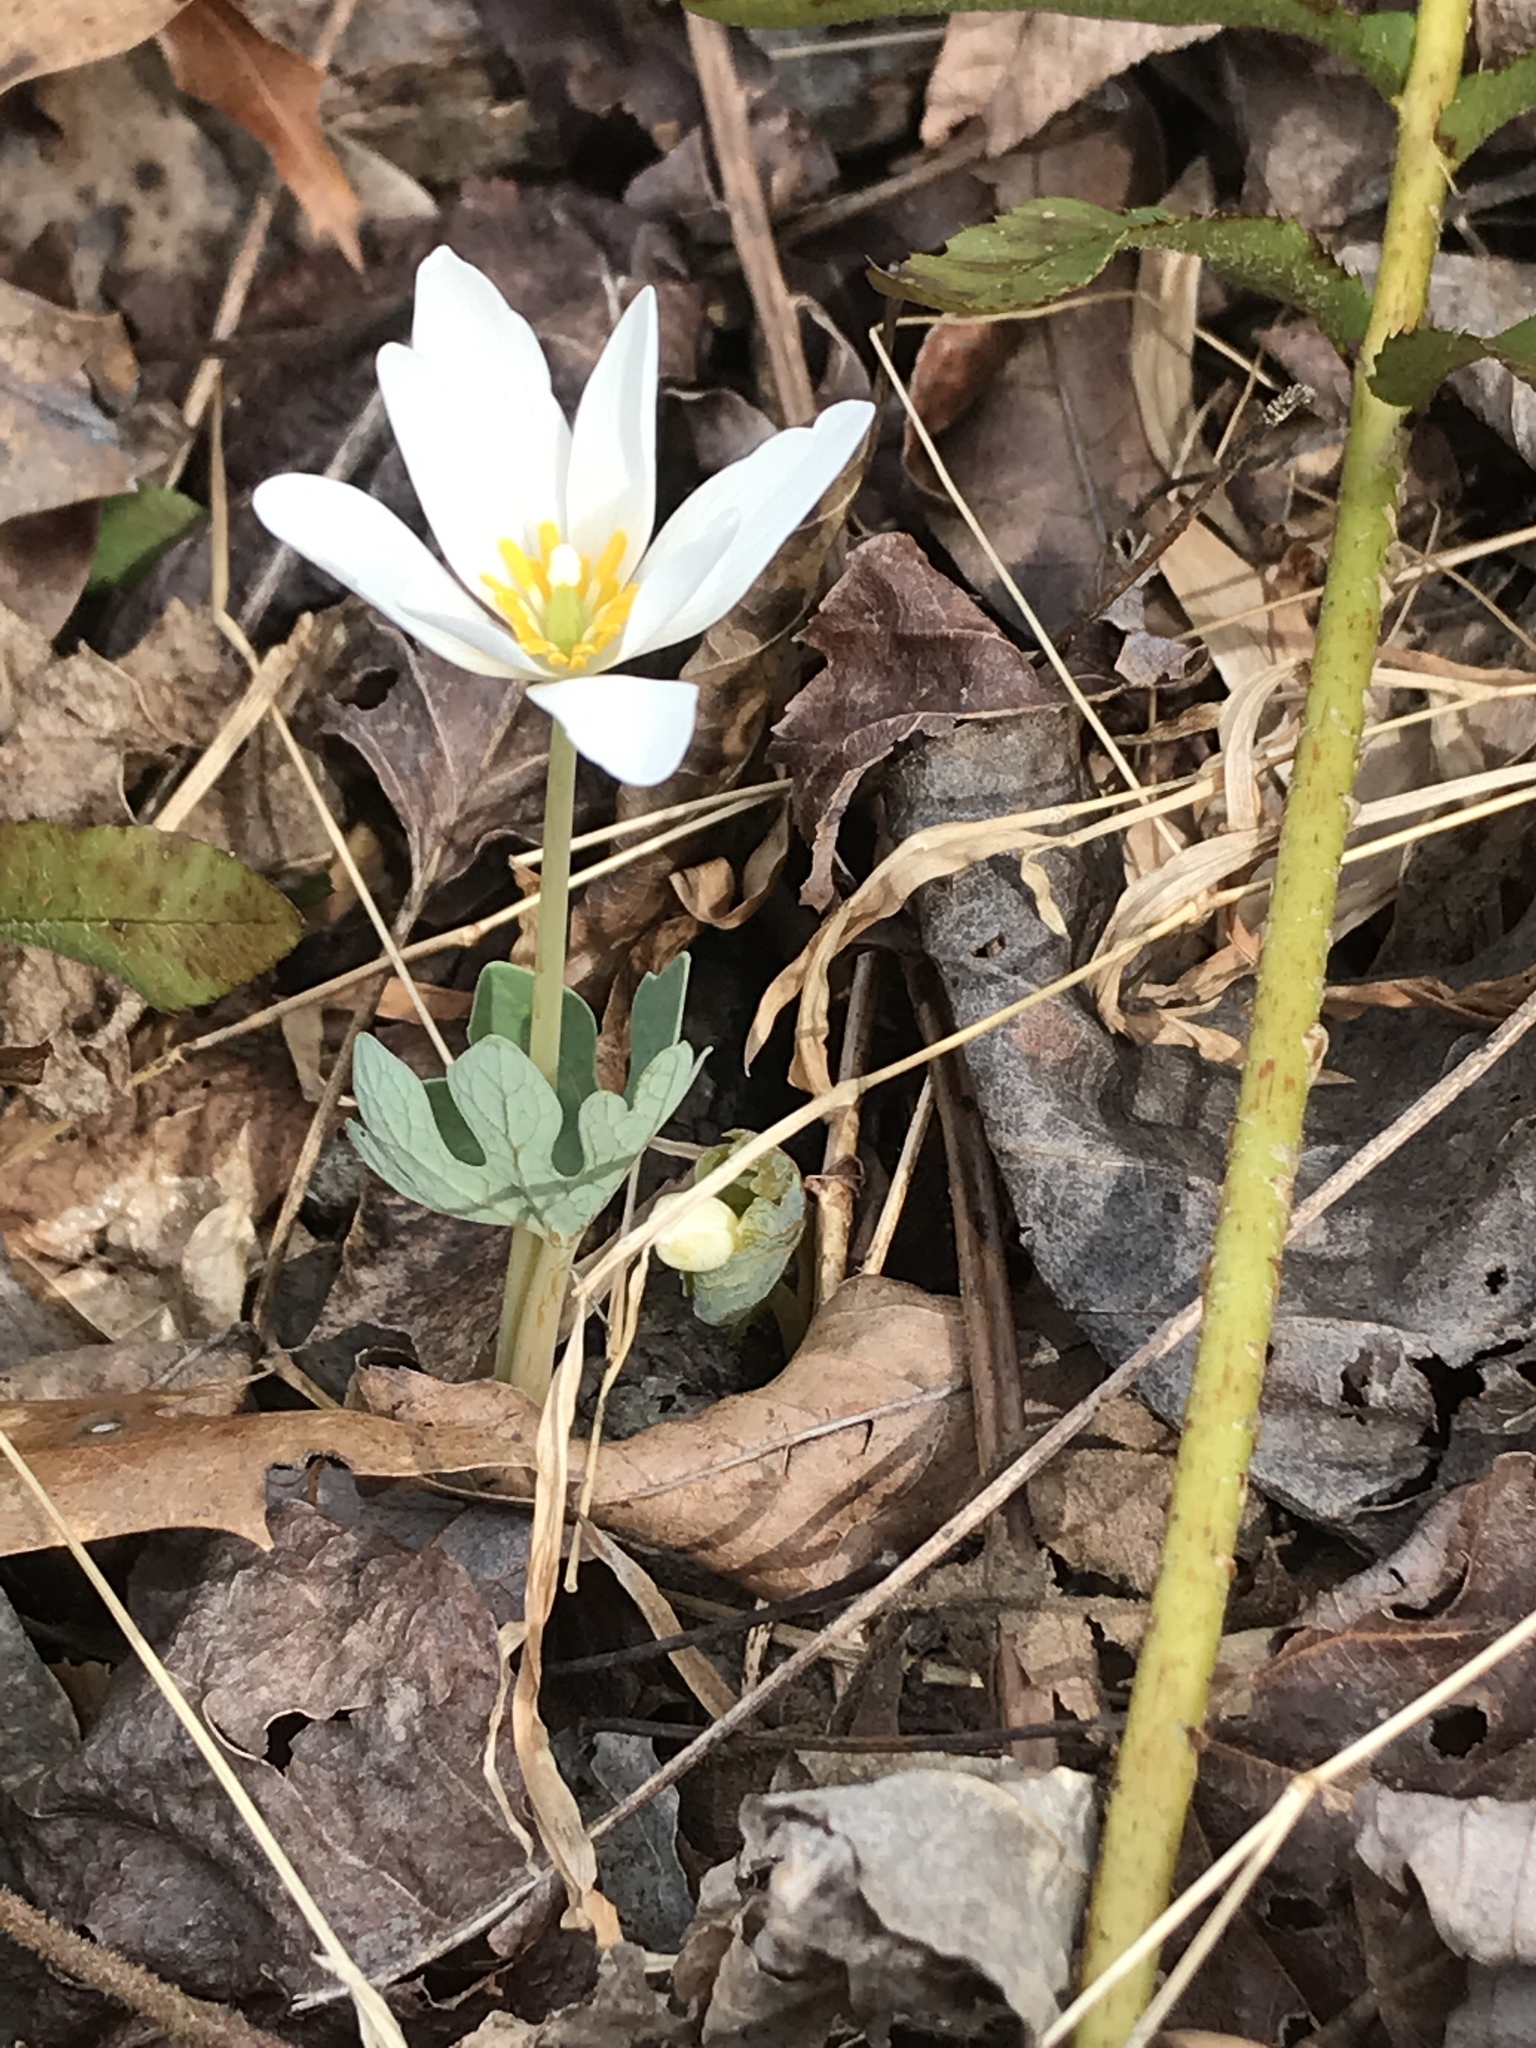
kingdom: Plantae
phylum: Tracheophyta
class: Magnoliopsida
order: Ranunculales
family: Papaveraceae
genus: Sanguinaria
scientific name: Sanguinaria canadensis
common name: Bloodroot
